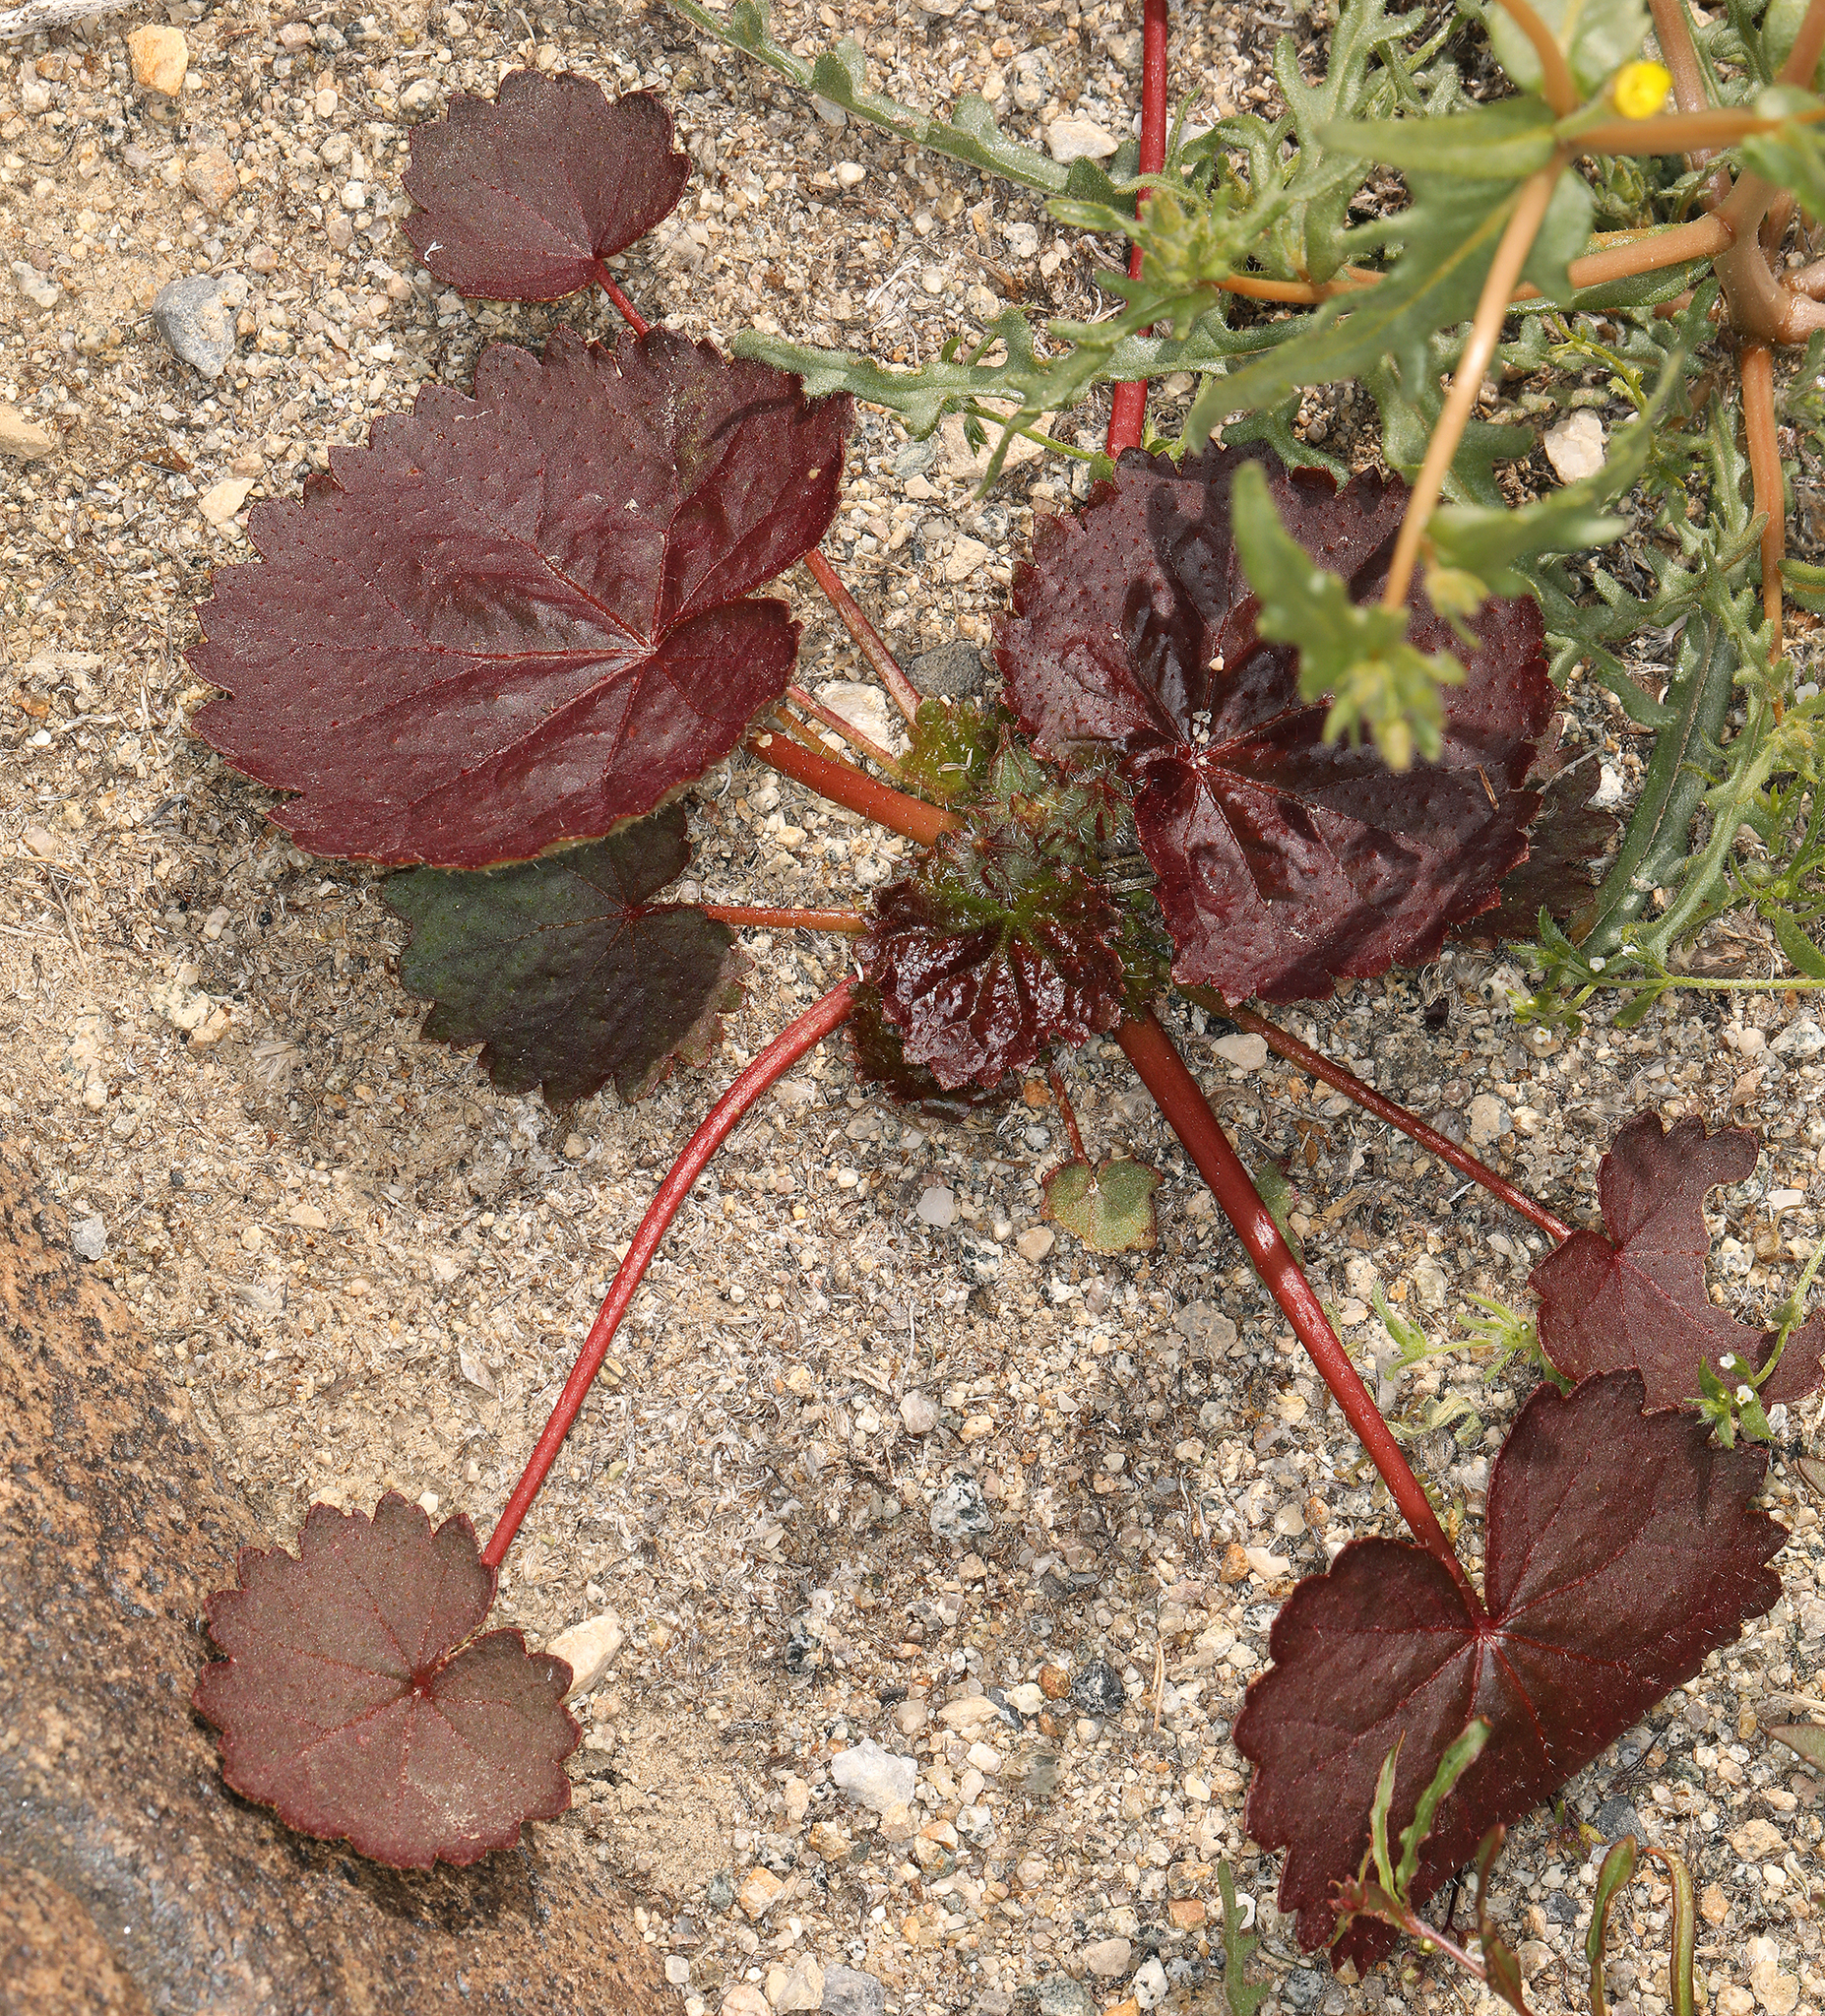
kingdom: Plantae
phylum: Tracheophyta
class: Magnoliopsida
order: Malvales
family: Malvaceae
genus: Eremalche
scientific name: Eremalche rotundifolia
